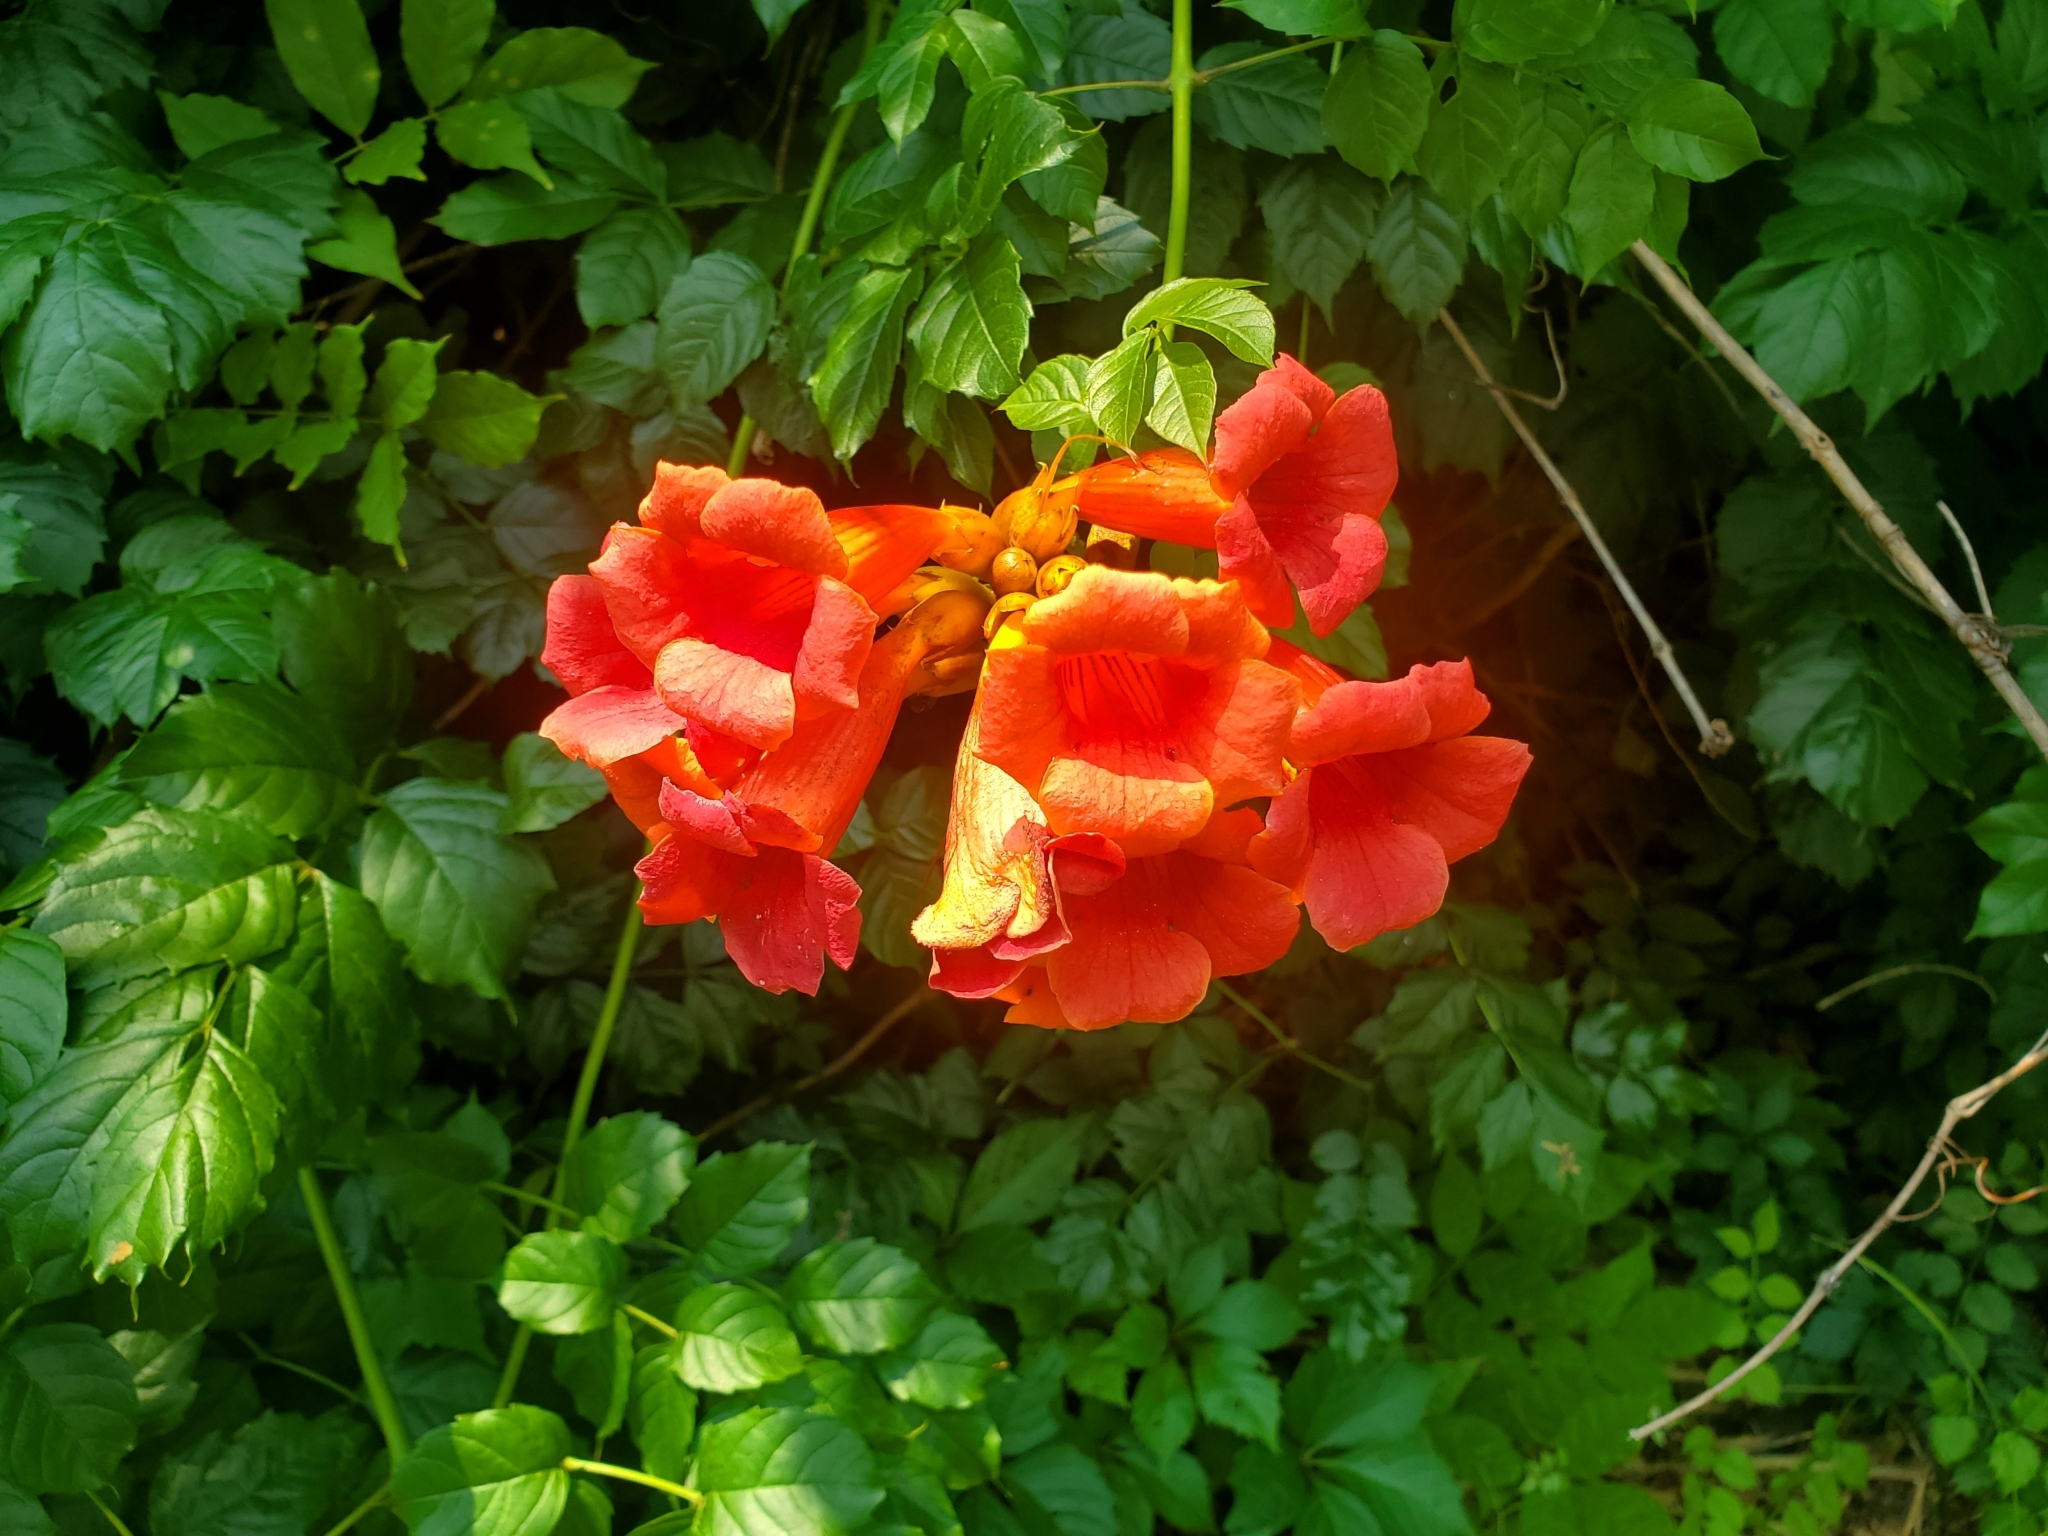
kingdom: Plantae
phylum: Tracheophyta
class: Magnoliopsida
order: Lamiales
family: Bignoniaceae
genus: Campsis
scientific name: Campsis radicans
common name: Trumpet-creeper
